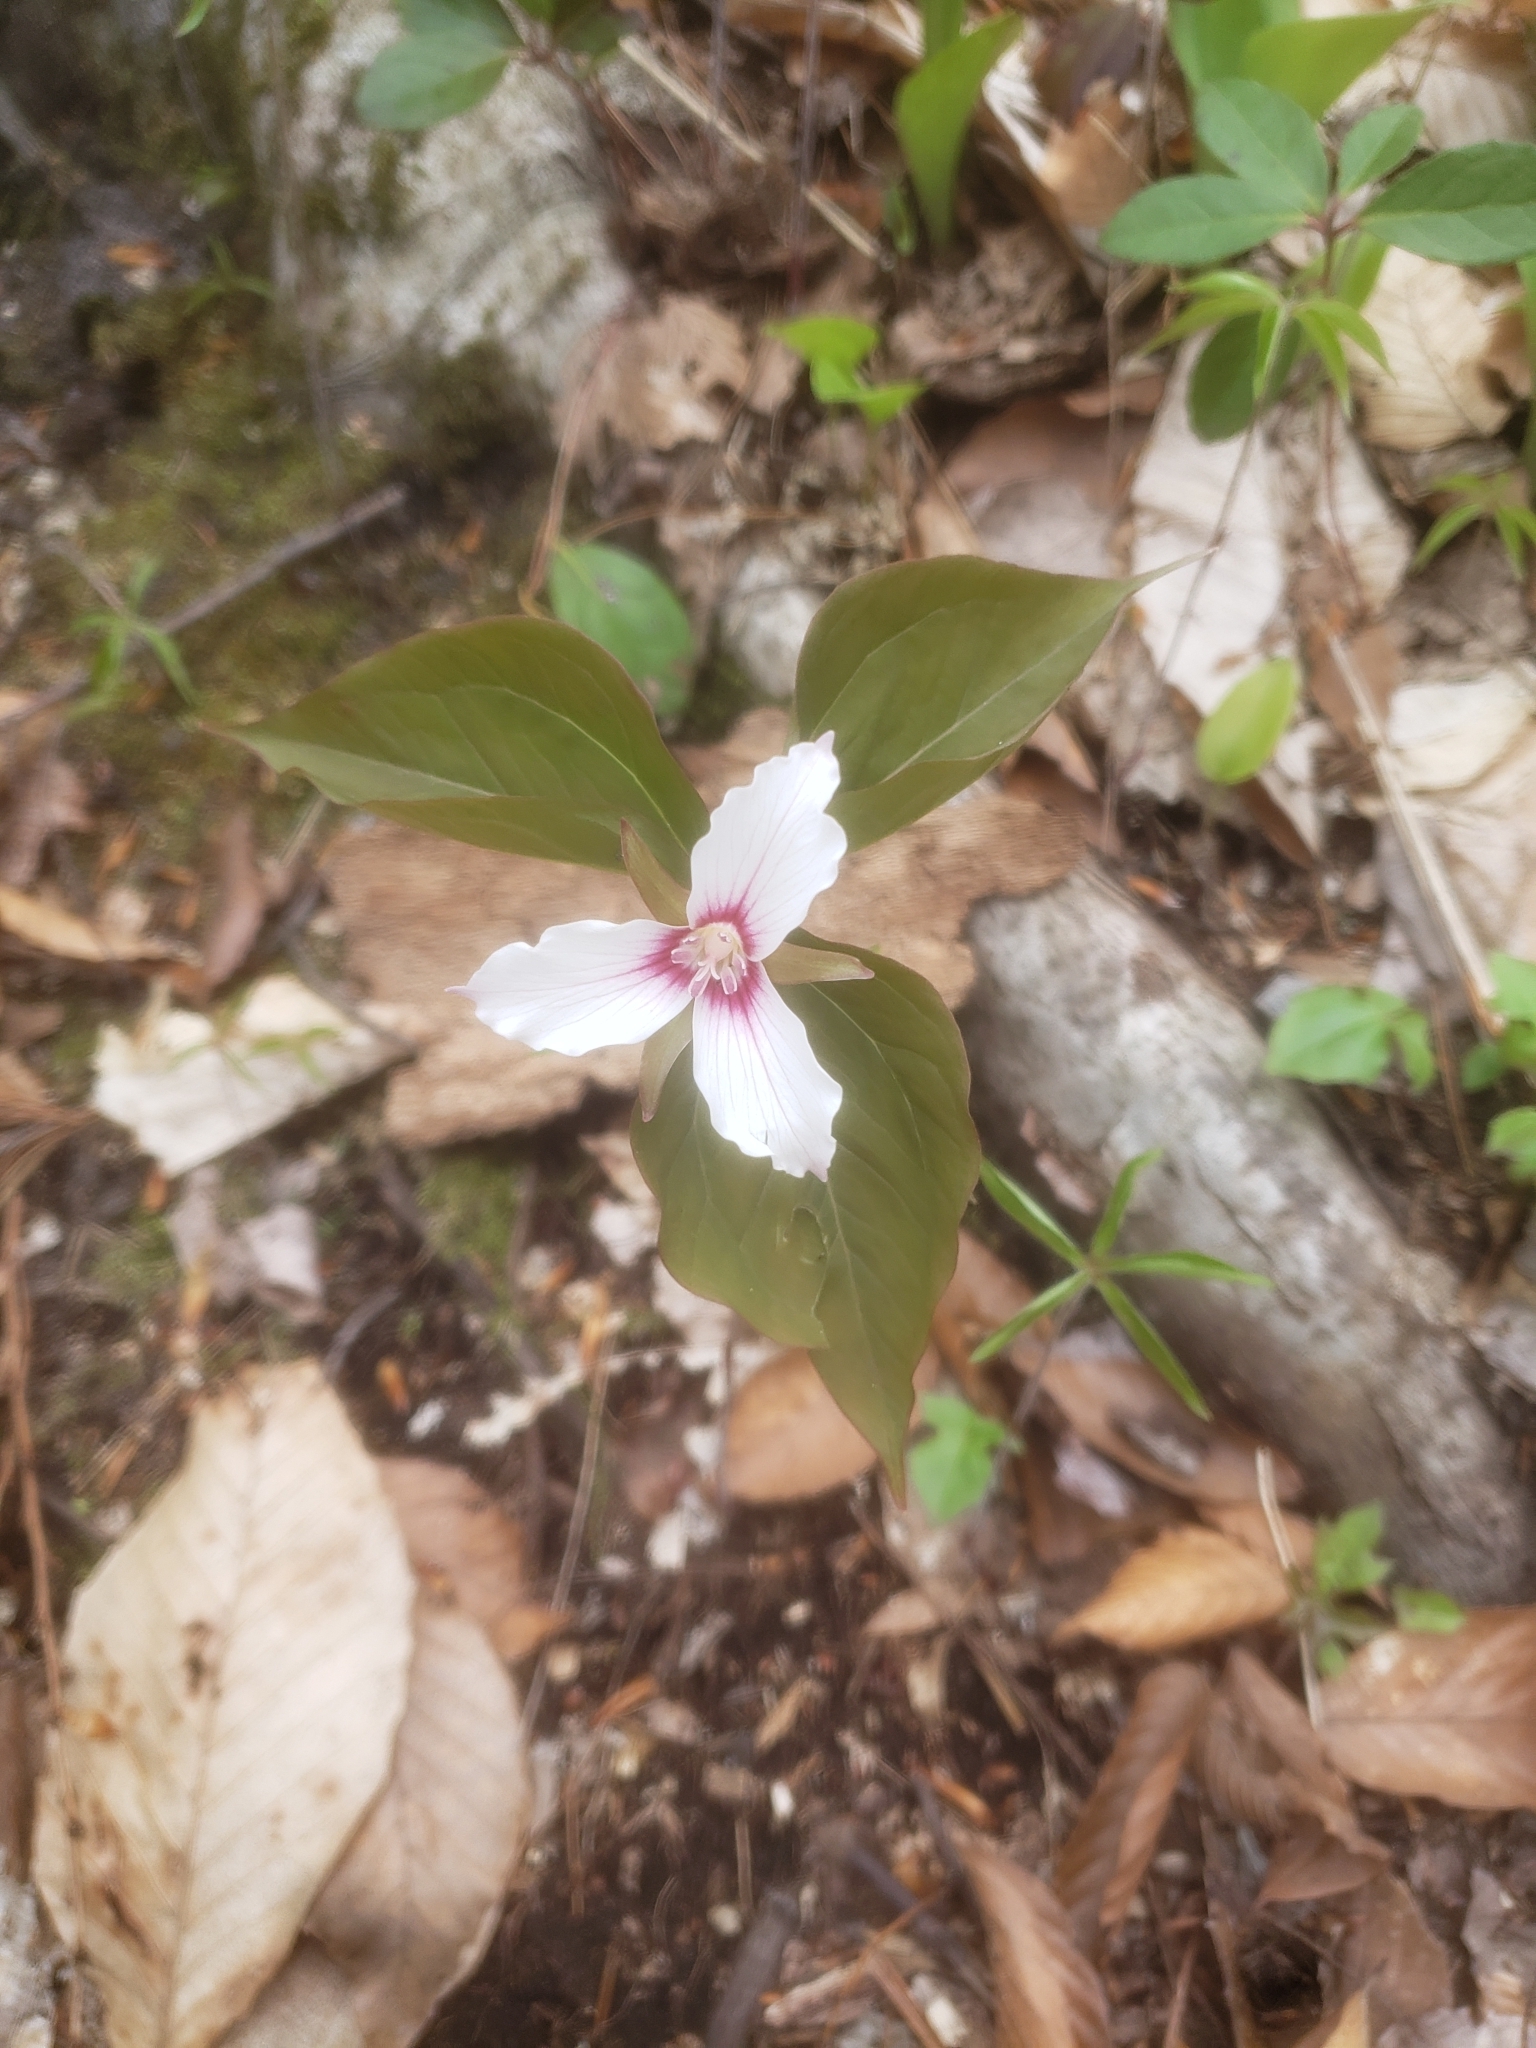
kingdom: Plantae
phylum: Tracheophyta
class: Liliopsida
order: Liliales
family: Melanthiaceae
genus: Trillium
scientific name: Trillium undulatum
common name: Paint trillium
